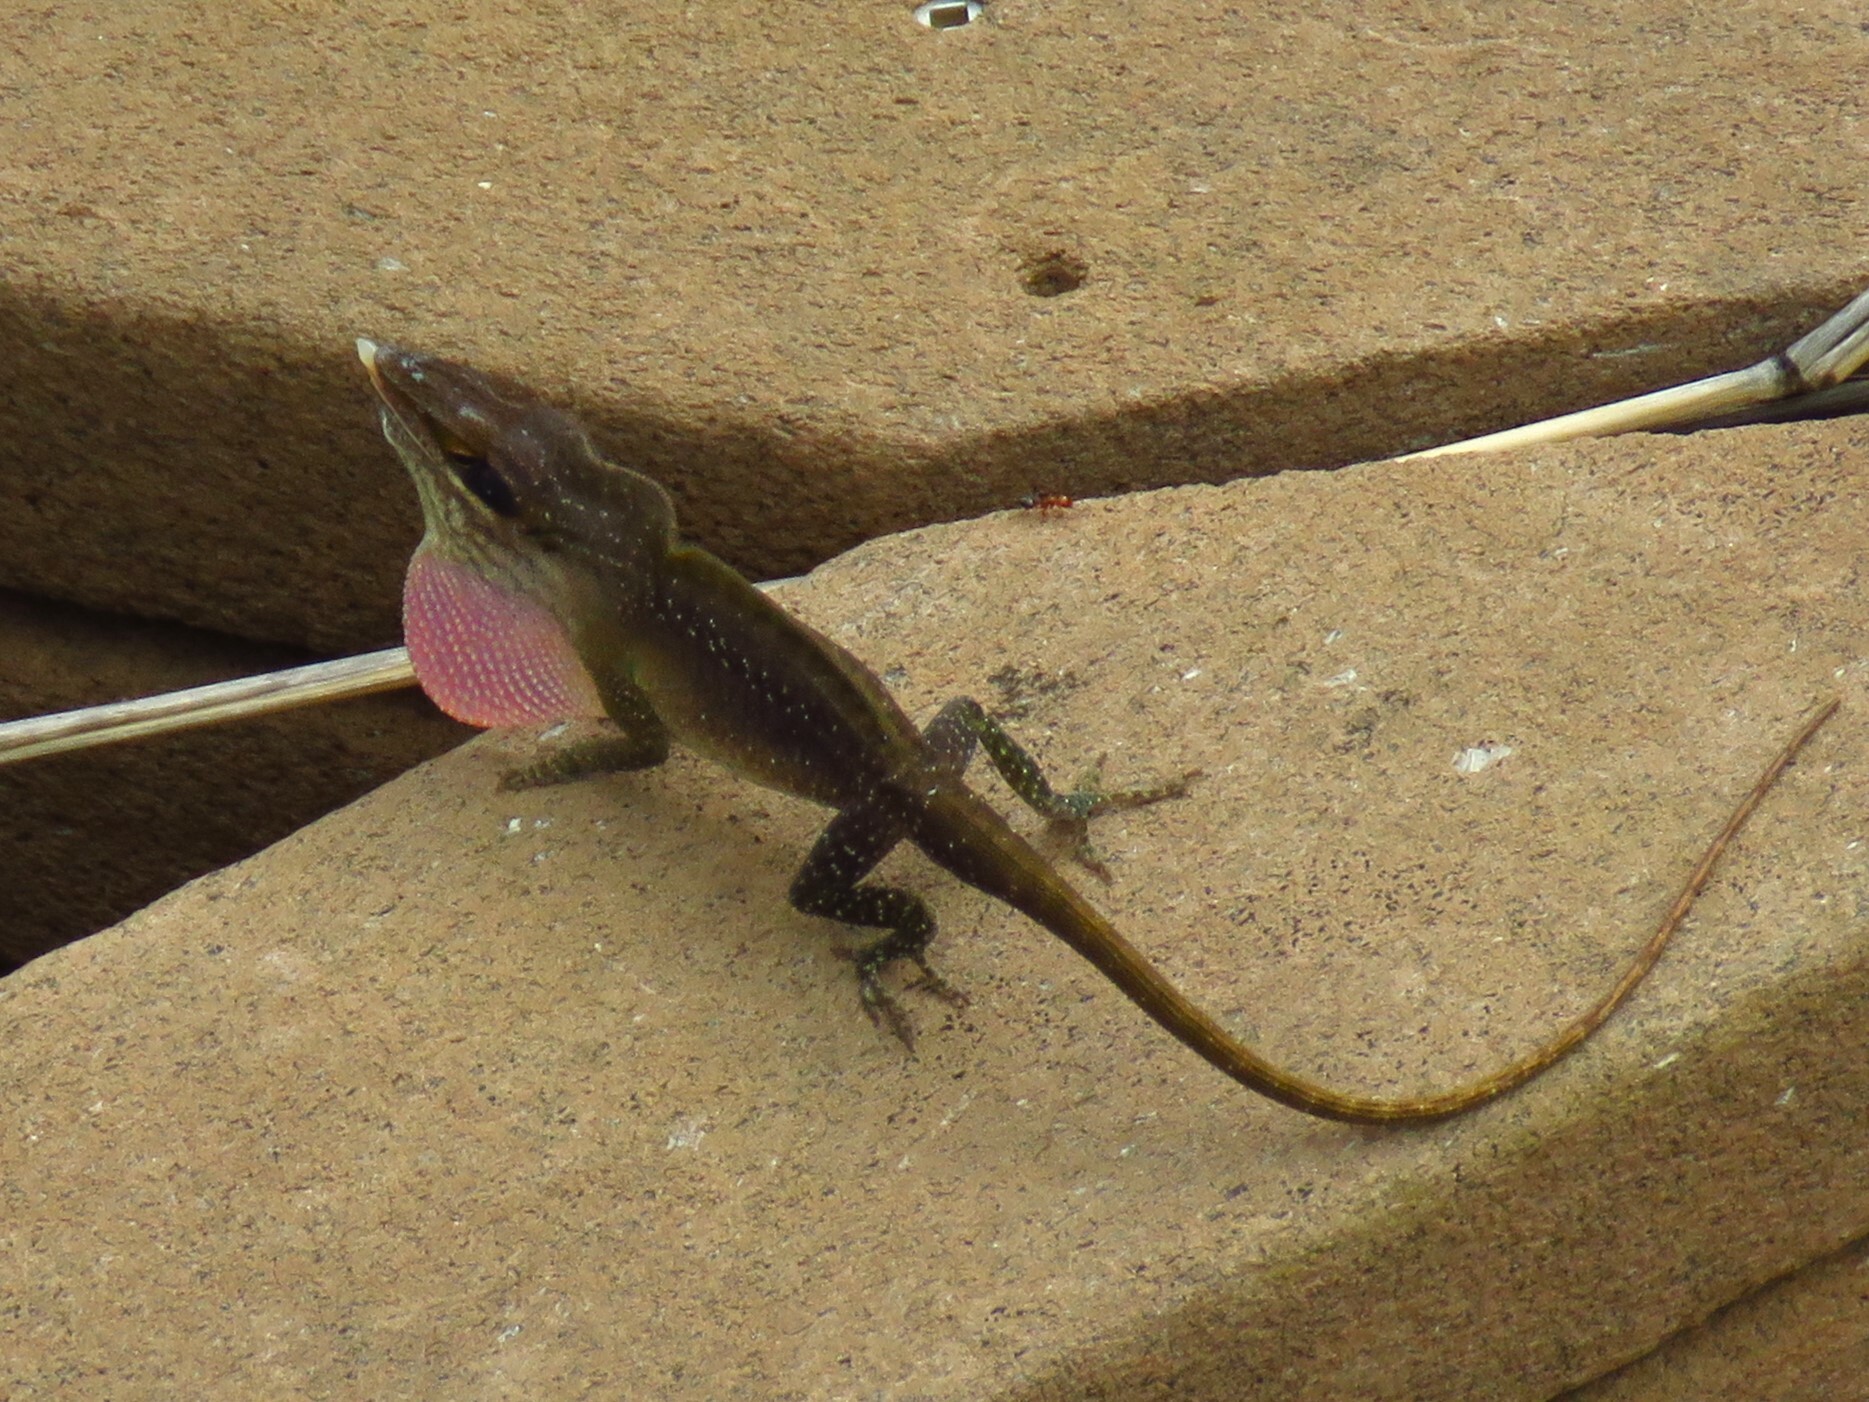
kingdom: Animalia
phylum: Chordata
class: Squamata
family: Dactyloidae
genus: Anolis
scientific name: Anolis carolinensis
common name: Green anole
